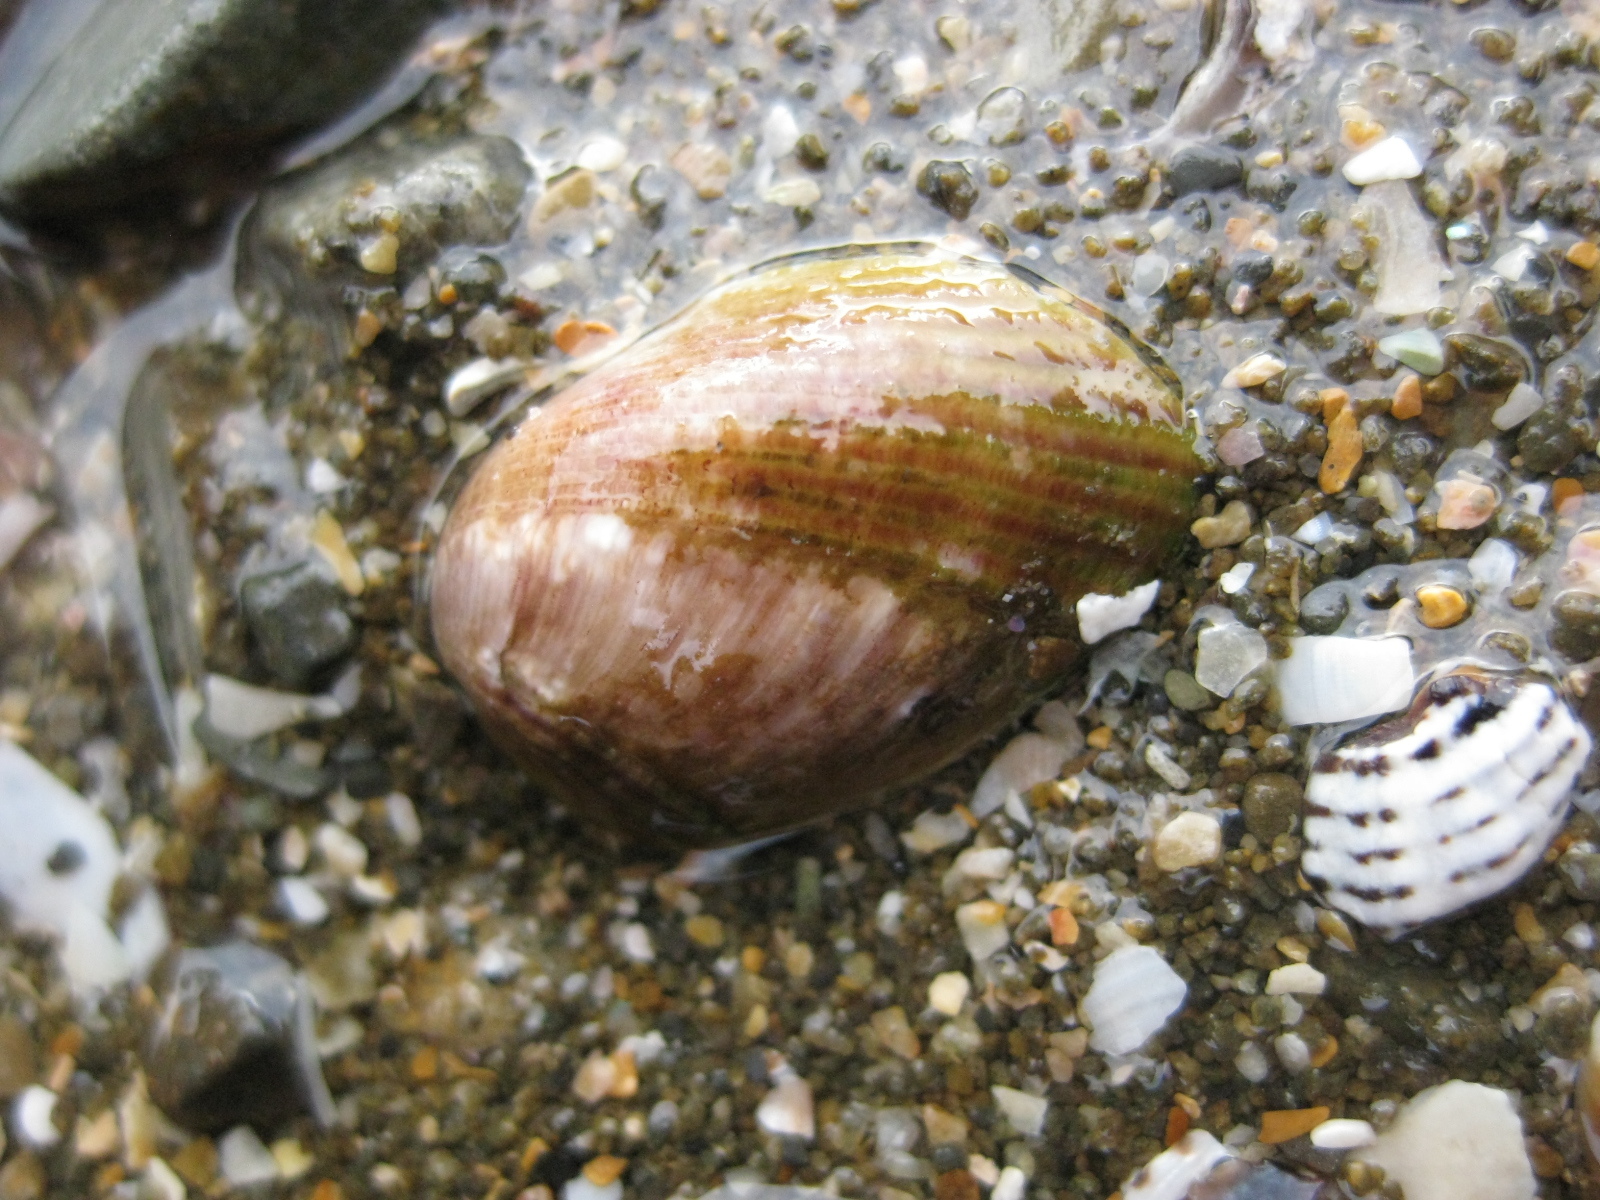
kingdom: Animalia
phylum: Mollusca
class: Bivalvia
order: Mytilida
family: Mytilidae
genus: Musculus
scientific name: Musculus impactus
